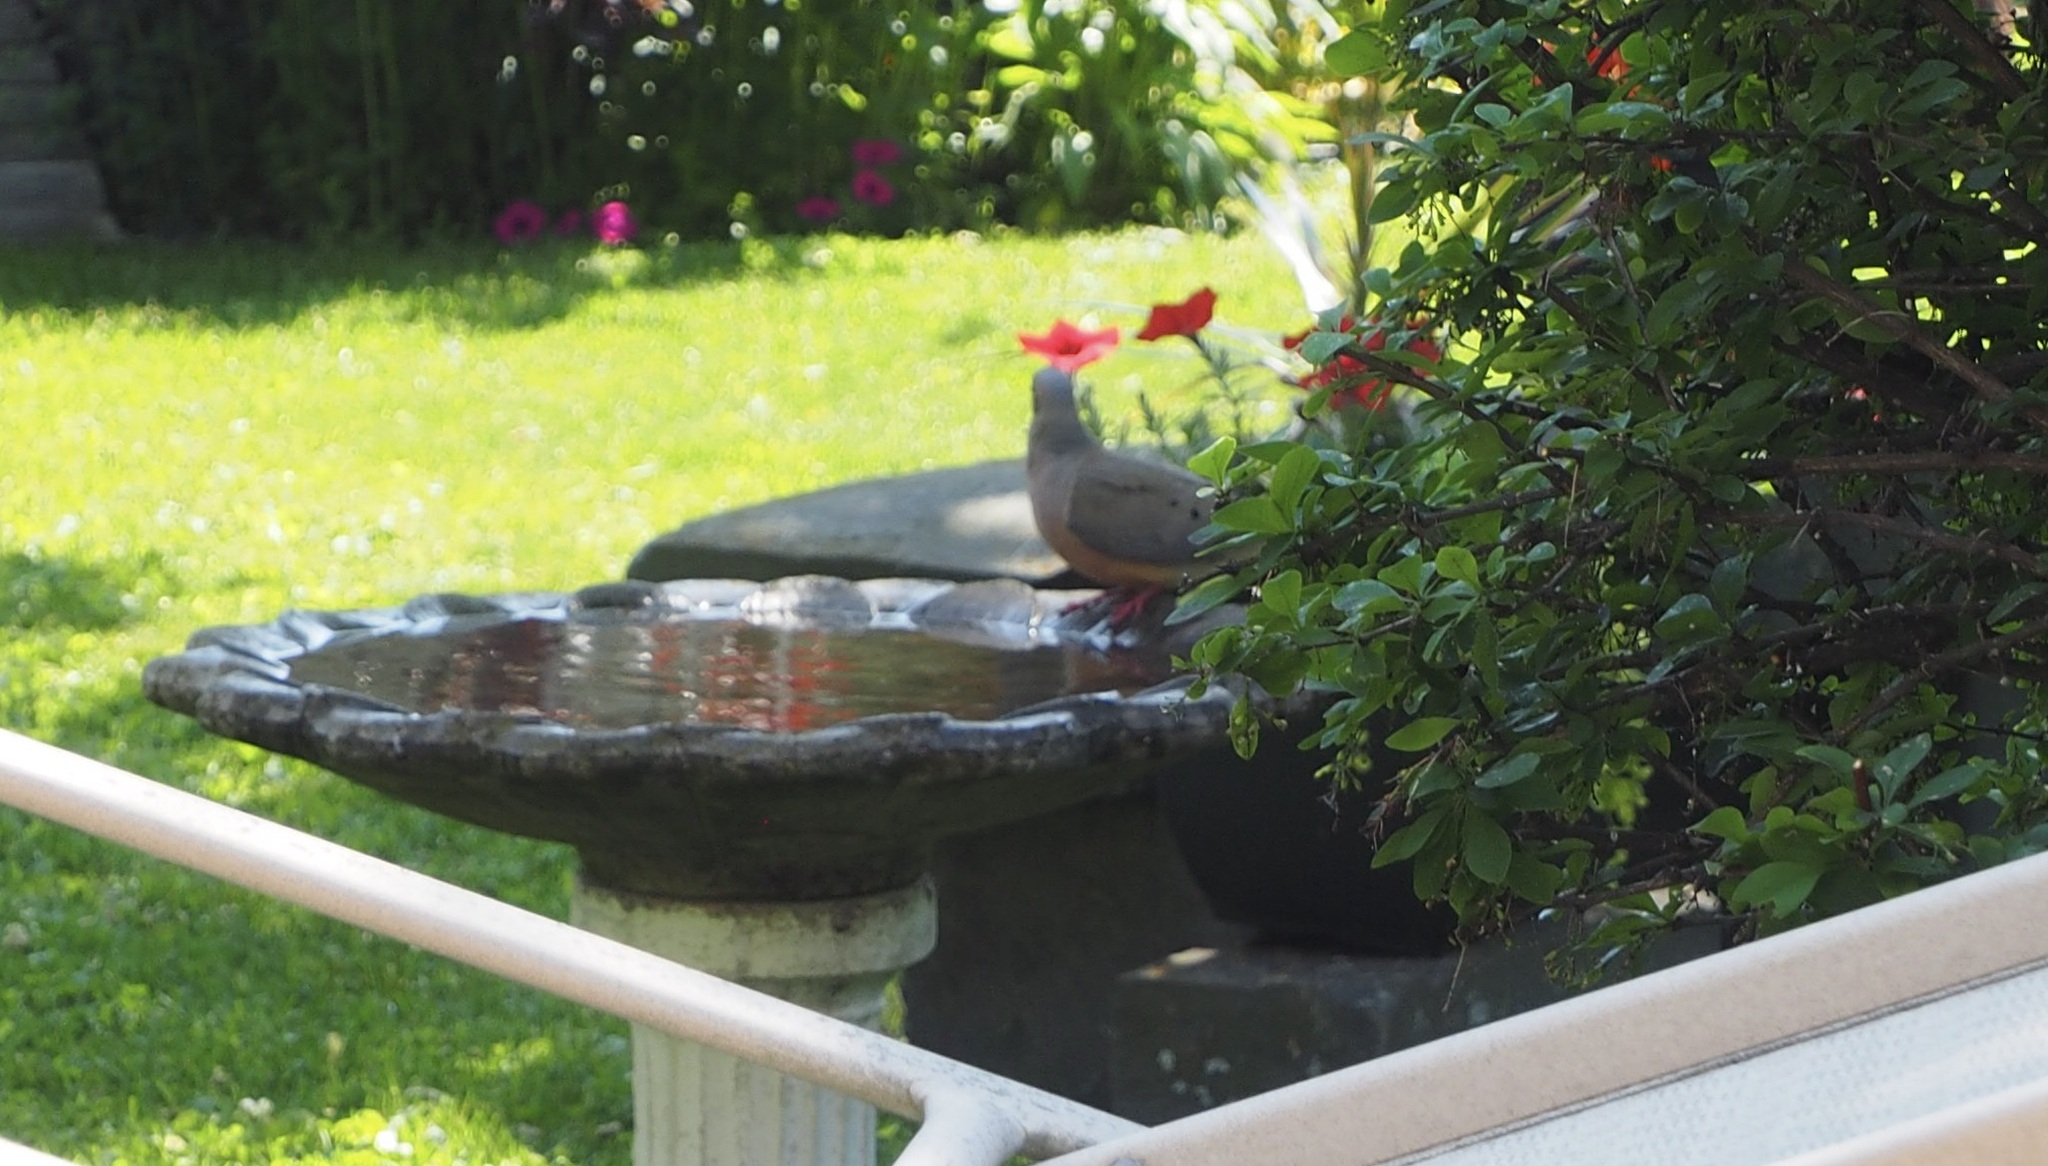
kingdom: Animalia
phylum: Chordata
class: Aves
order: Columbiformes
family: Columbidae
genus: Zenaida
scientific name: Zenaida macroura
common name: Mourning dove
